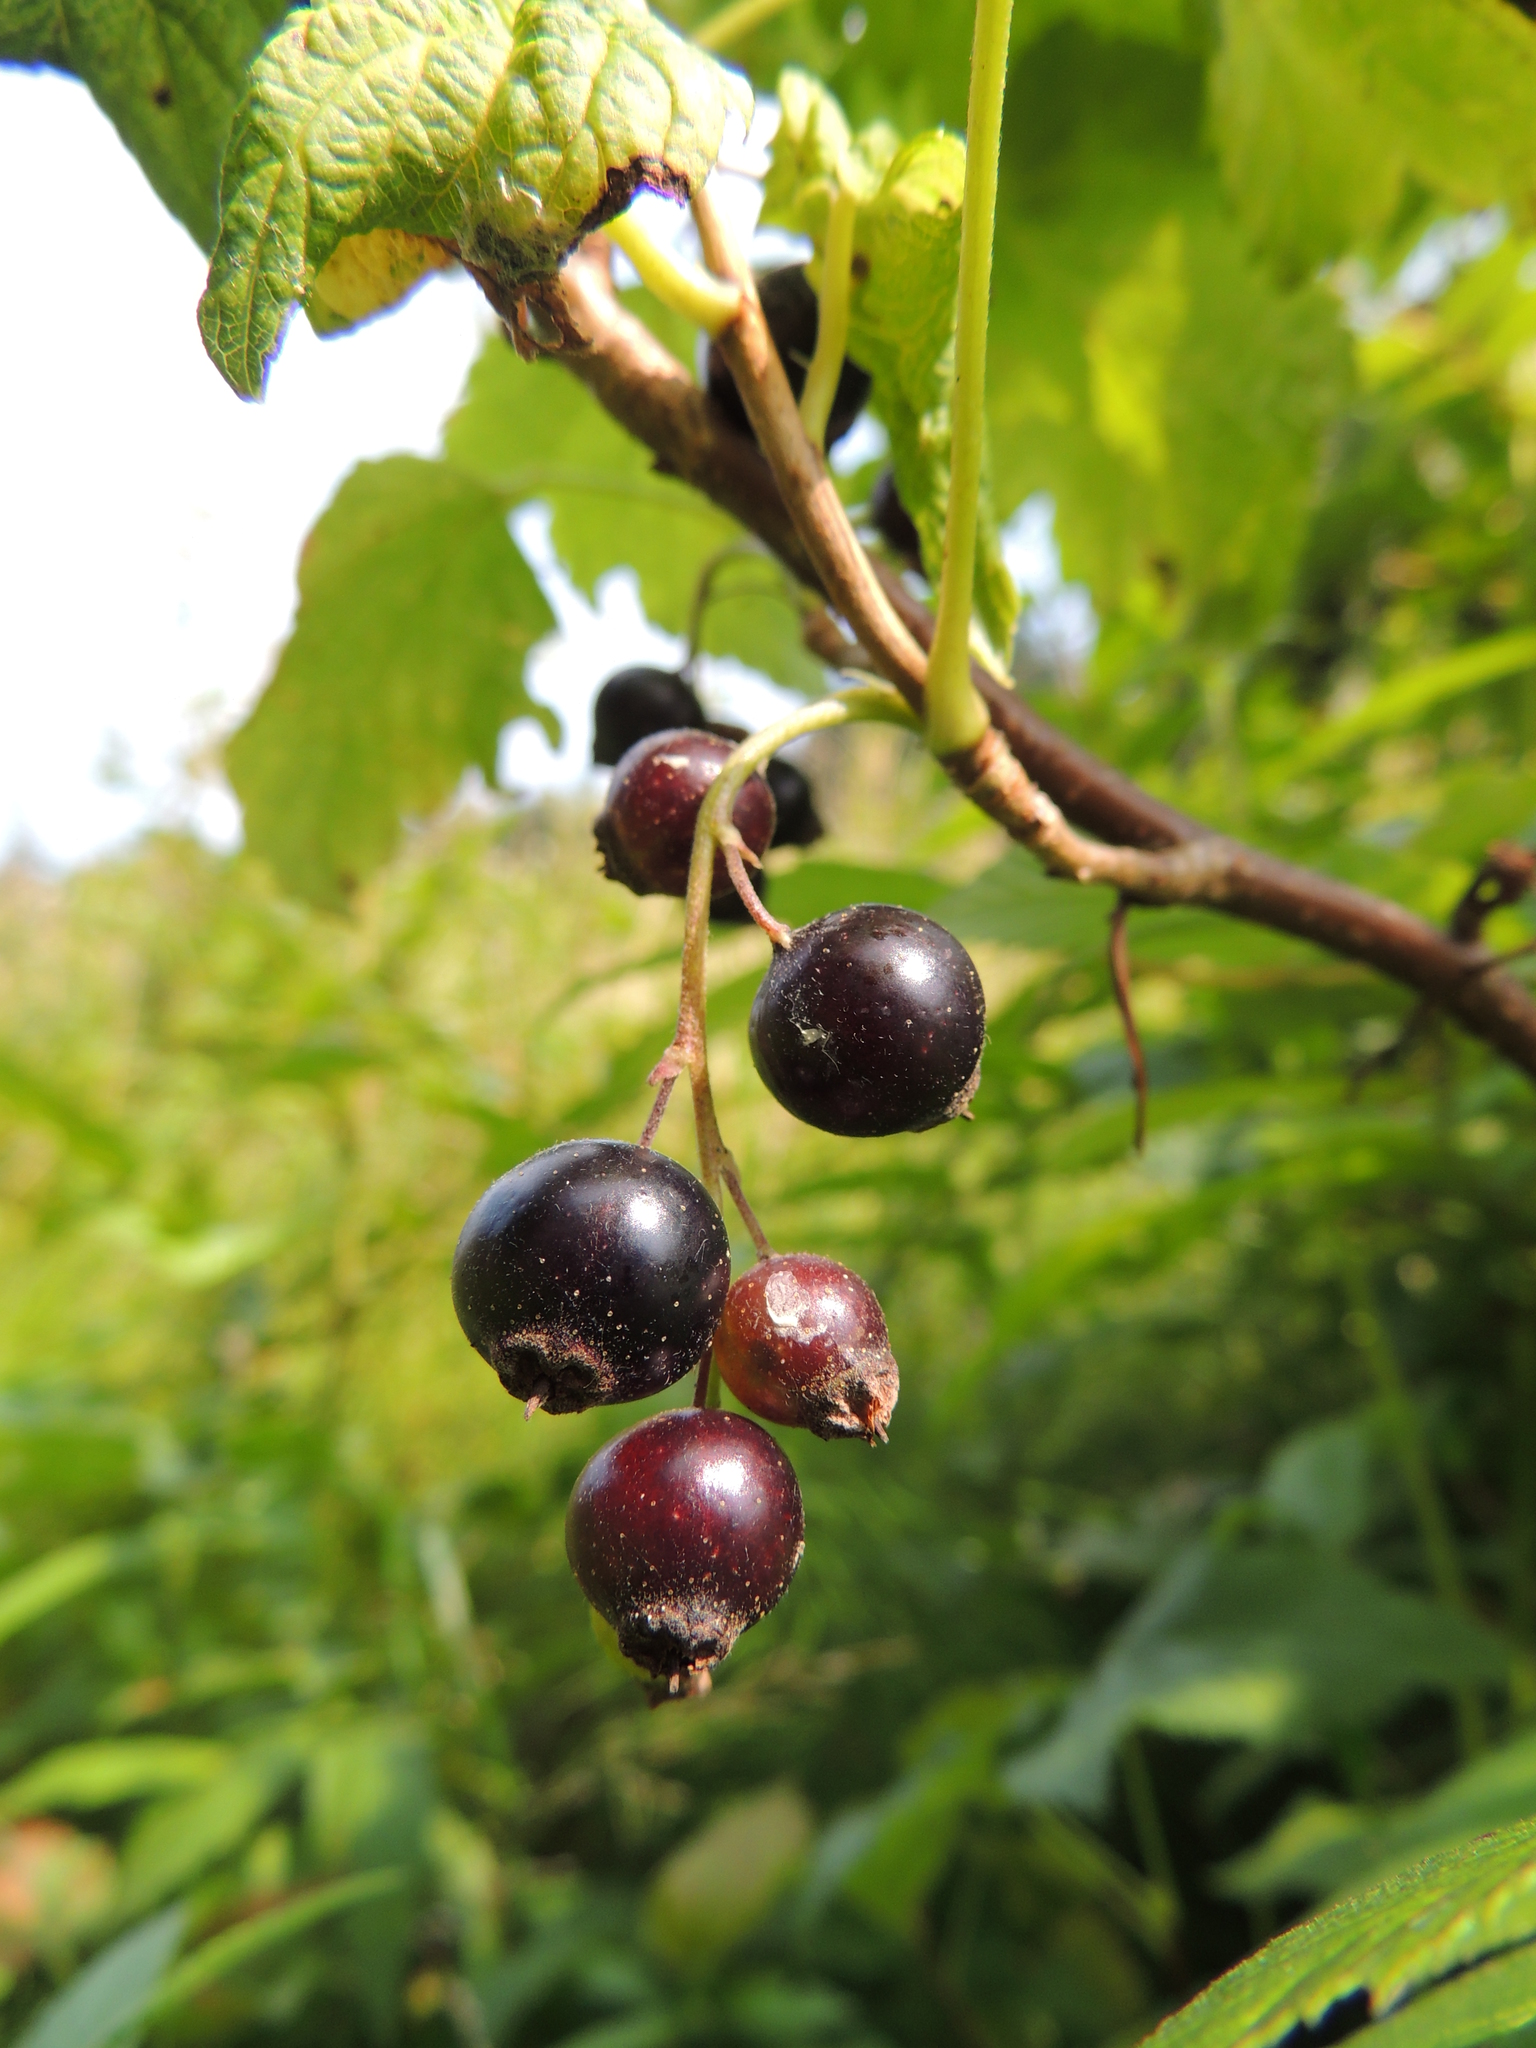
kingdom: Plantae
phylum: Tracheophyta
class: Magnoliopsida
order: Saxifragales
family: Grossulariaceae
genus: Ribes
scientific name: Ribes nigrum
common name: Black currant
